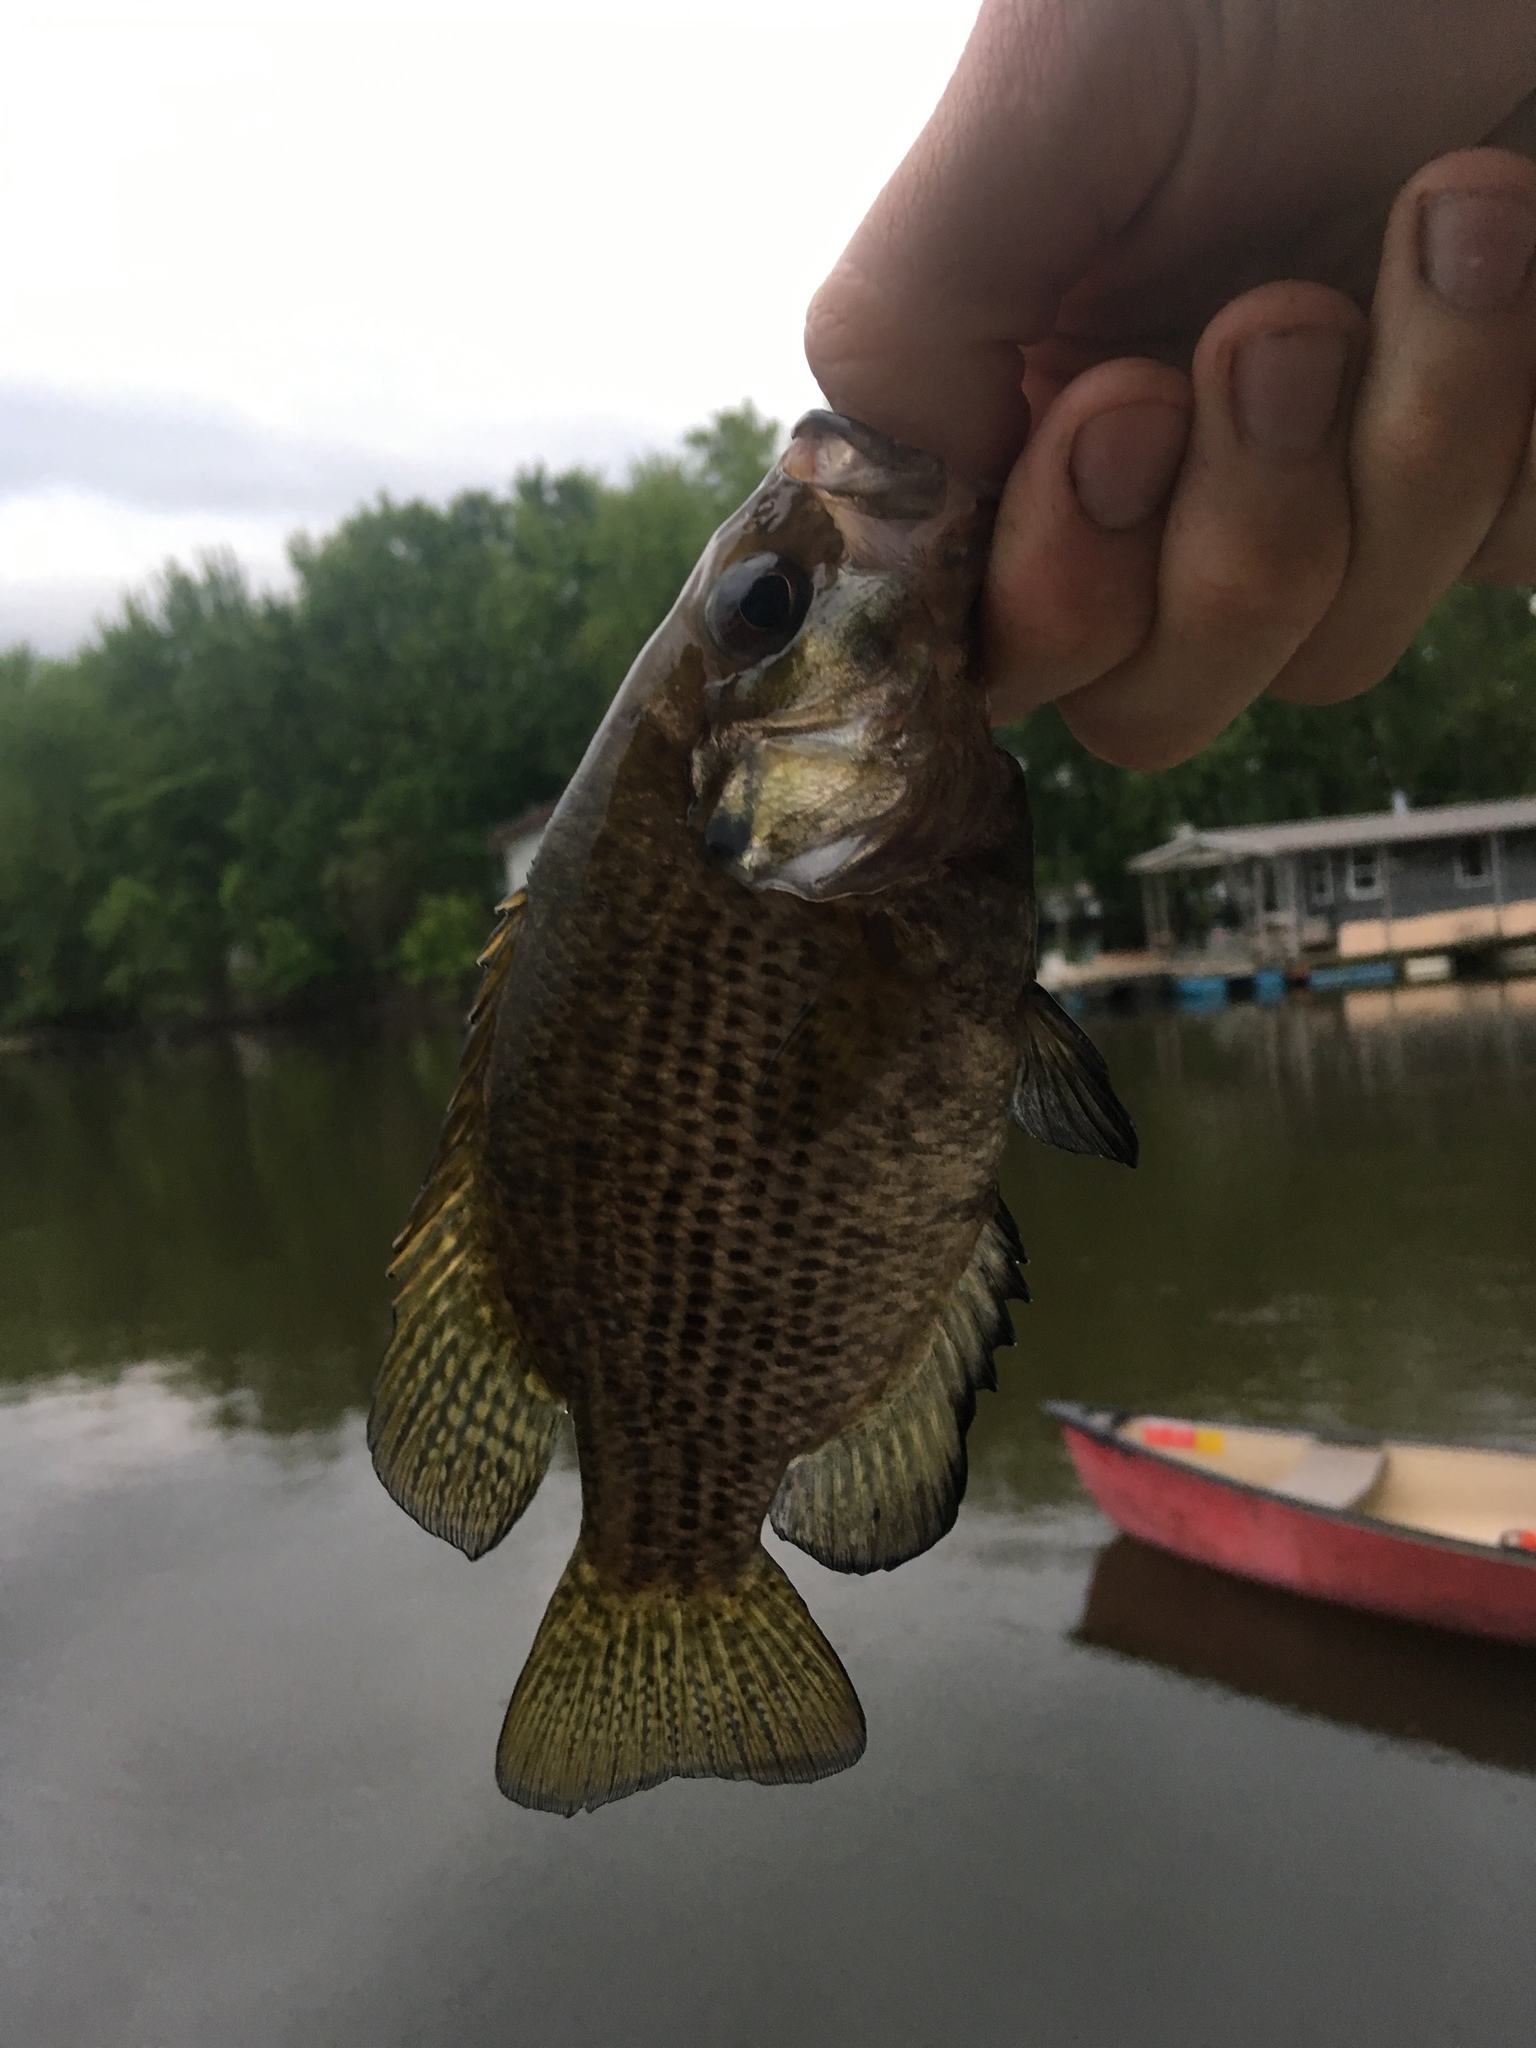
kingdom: Animalia
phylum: Chordata
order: Perciformes
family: Centrarchidae
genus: Ambloplites
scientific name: Ambloplites rupestris
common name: Rock bass
